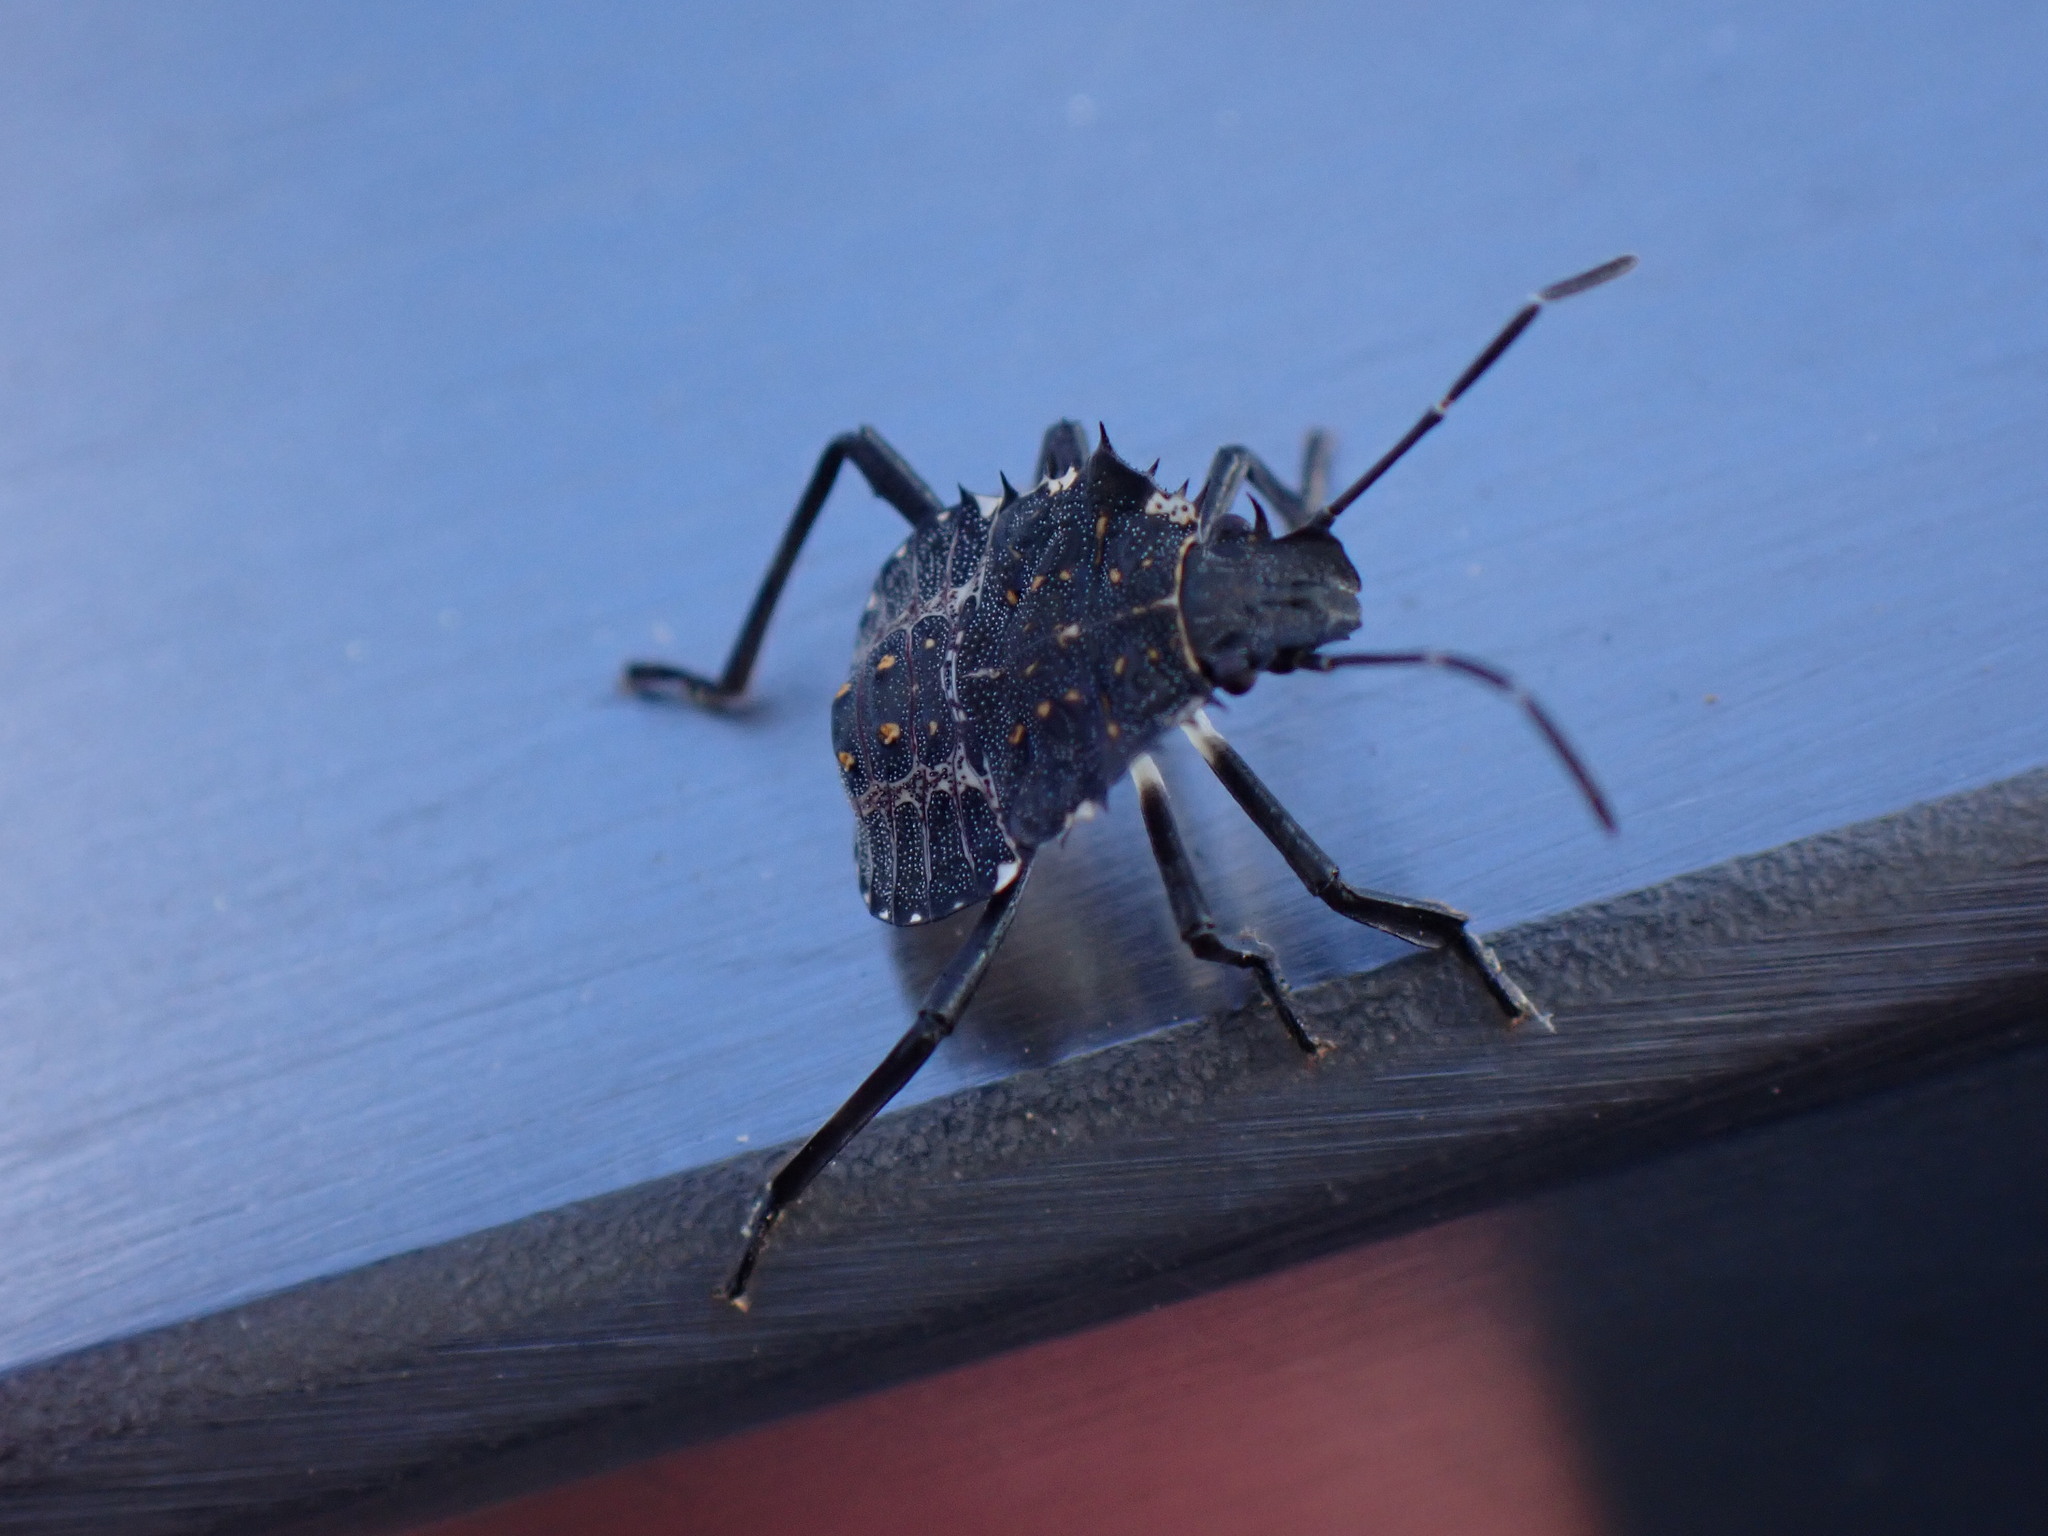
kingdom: Animalia
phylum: Arthropoda
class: Insecta
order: Hemiptera
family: Pentatomidae
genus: Halyomorpha
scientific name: Halyomorpha halys
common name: Brown marmorated stink bug
